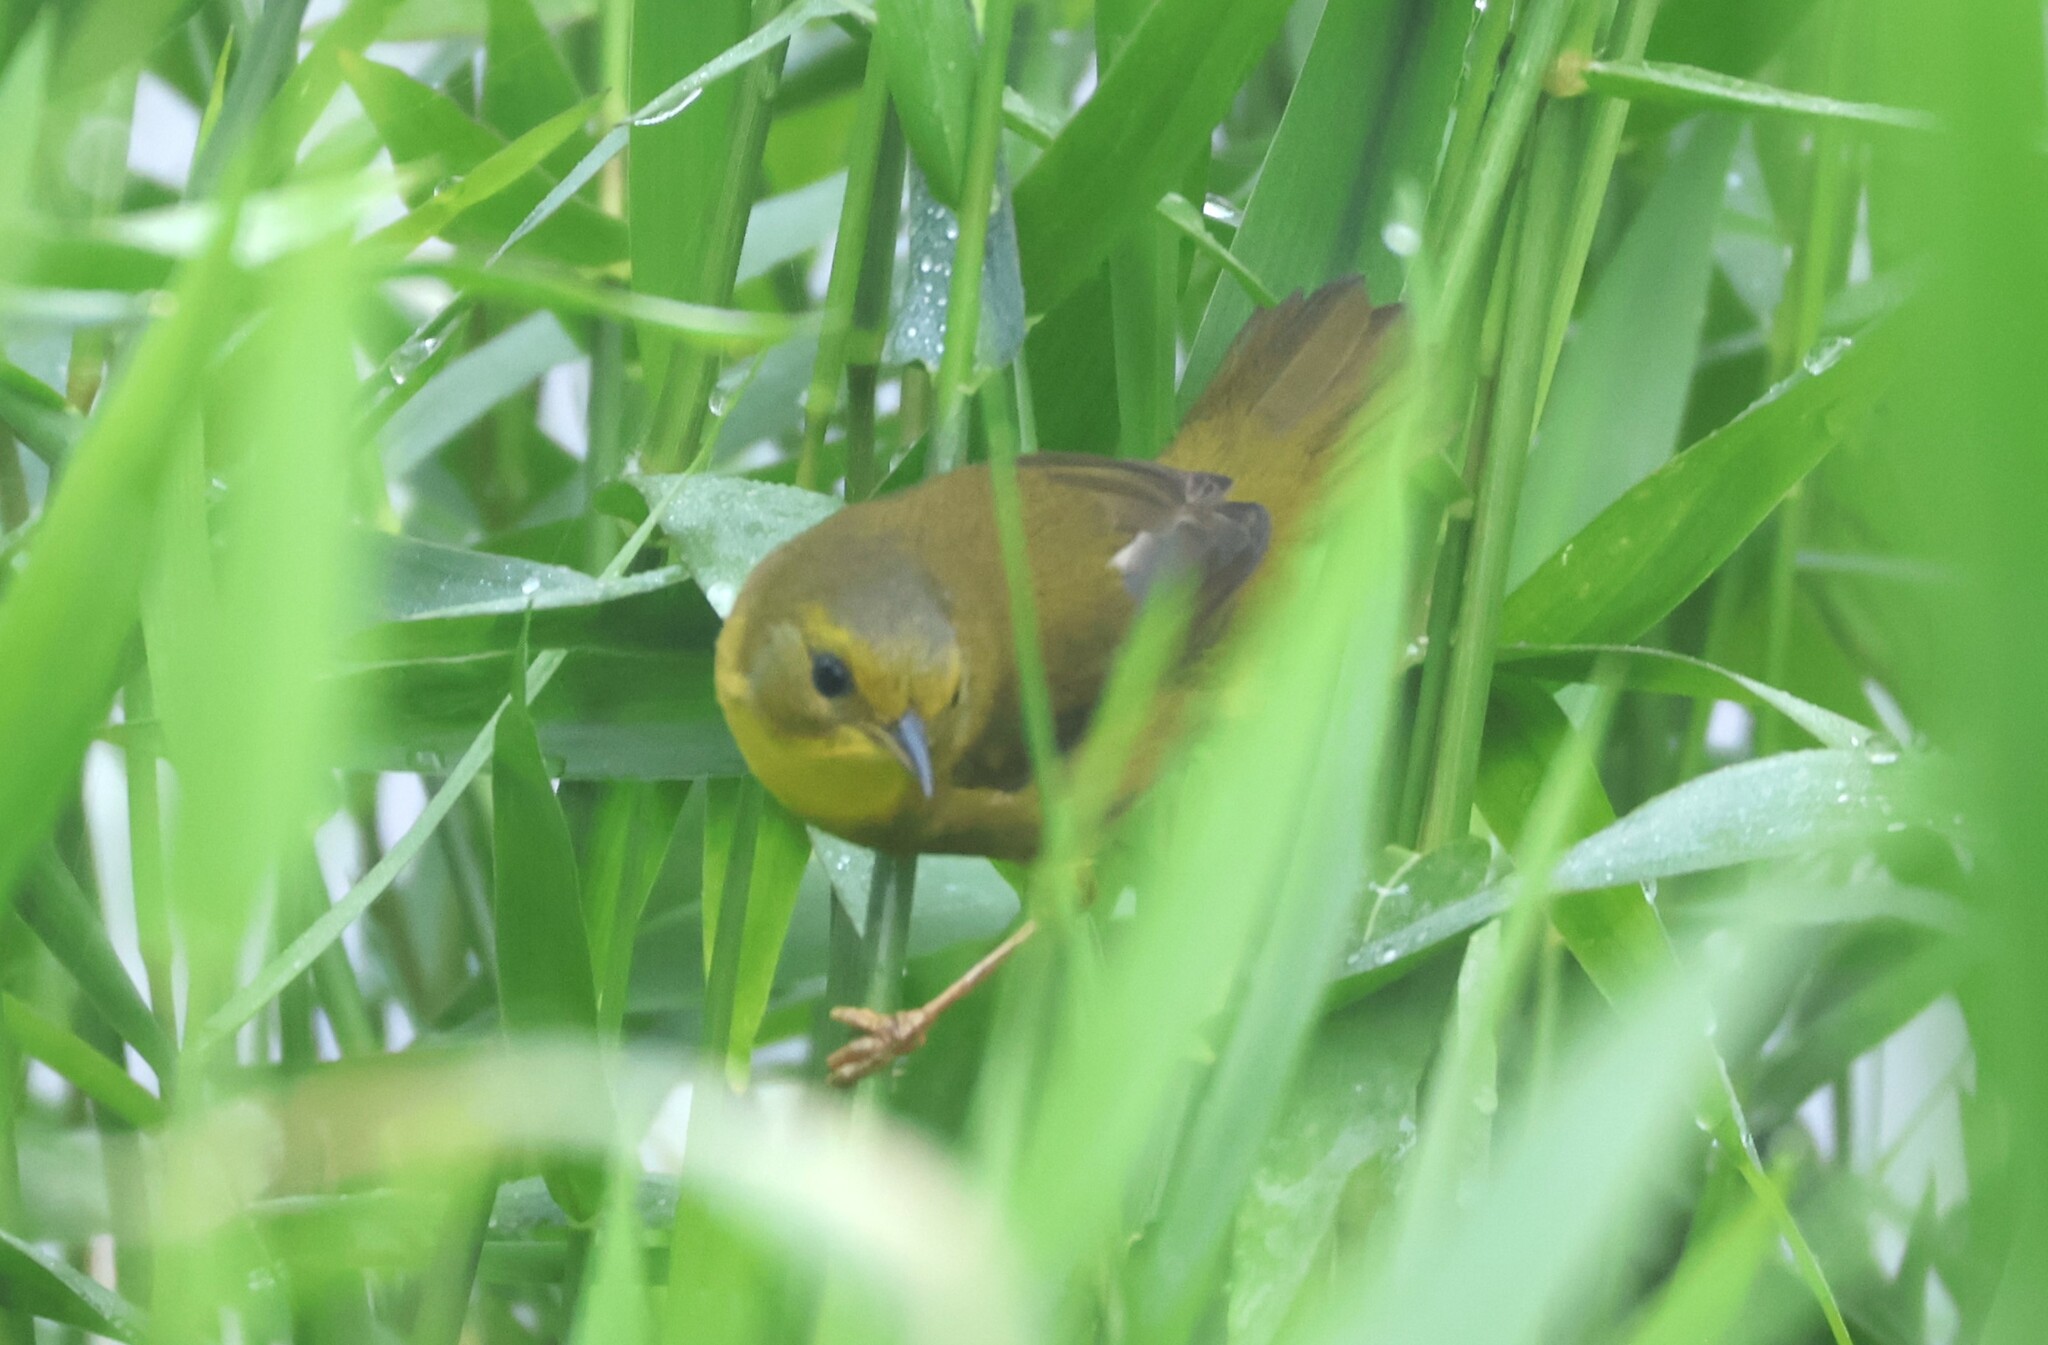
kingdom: Animalia
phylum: Chordata
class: Aves
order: Passeriformes
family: Parulidae
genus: Geothlypis
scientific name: Geothlypis semiflava
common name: Olive-crowned yellowthroat
